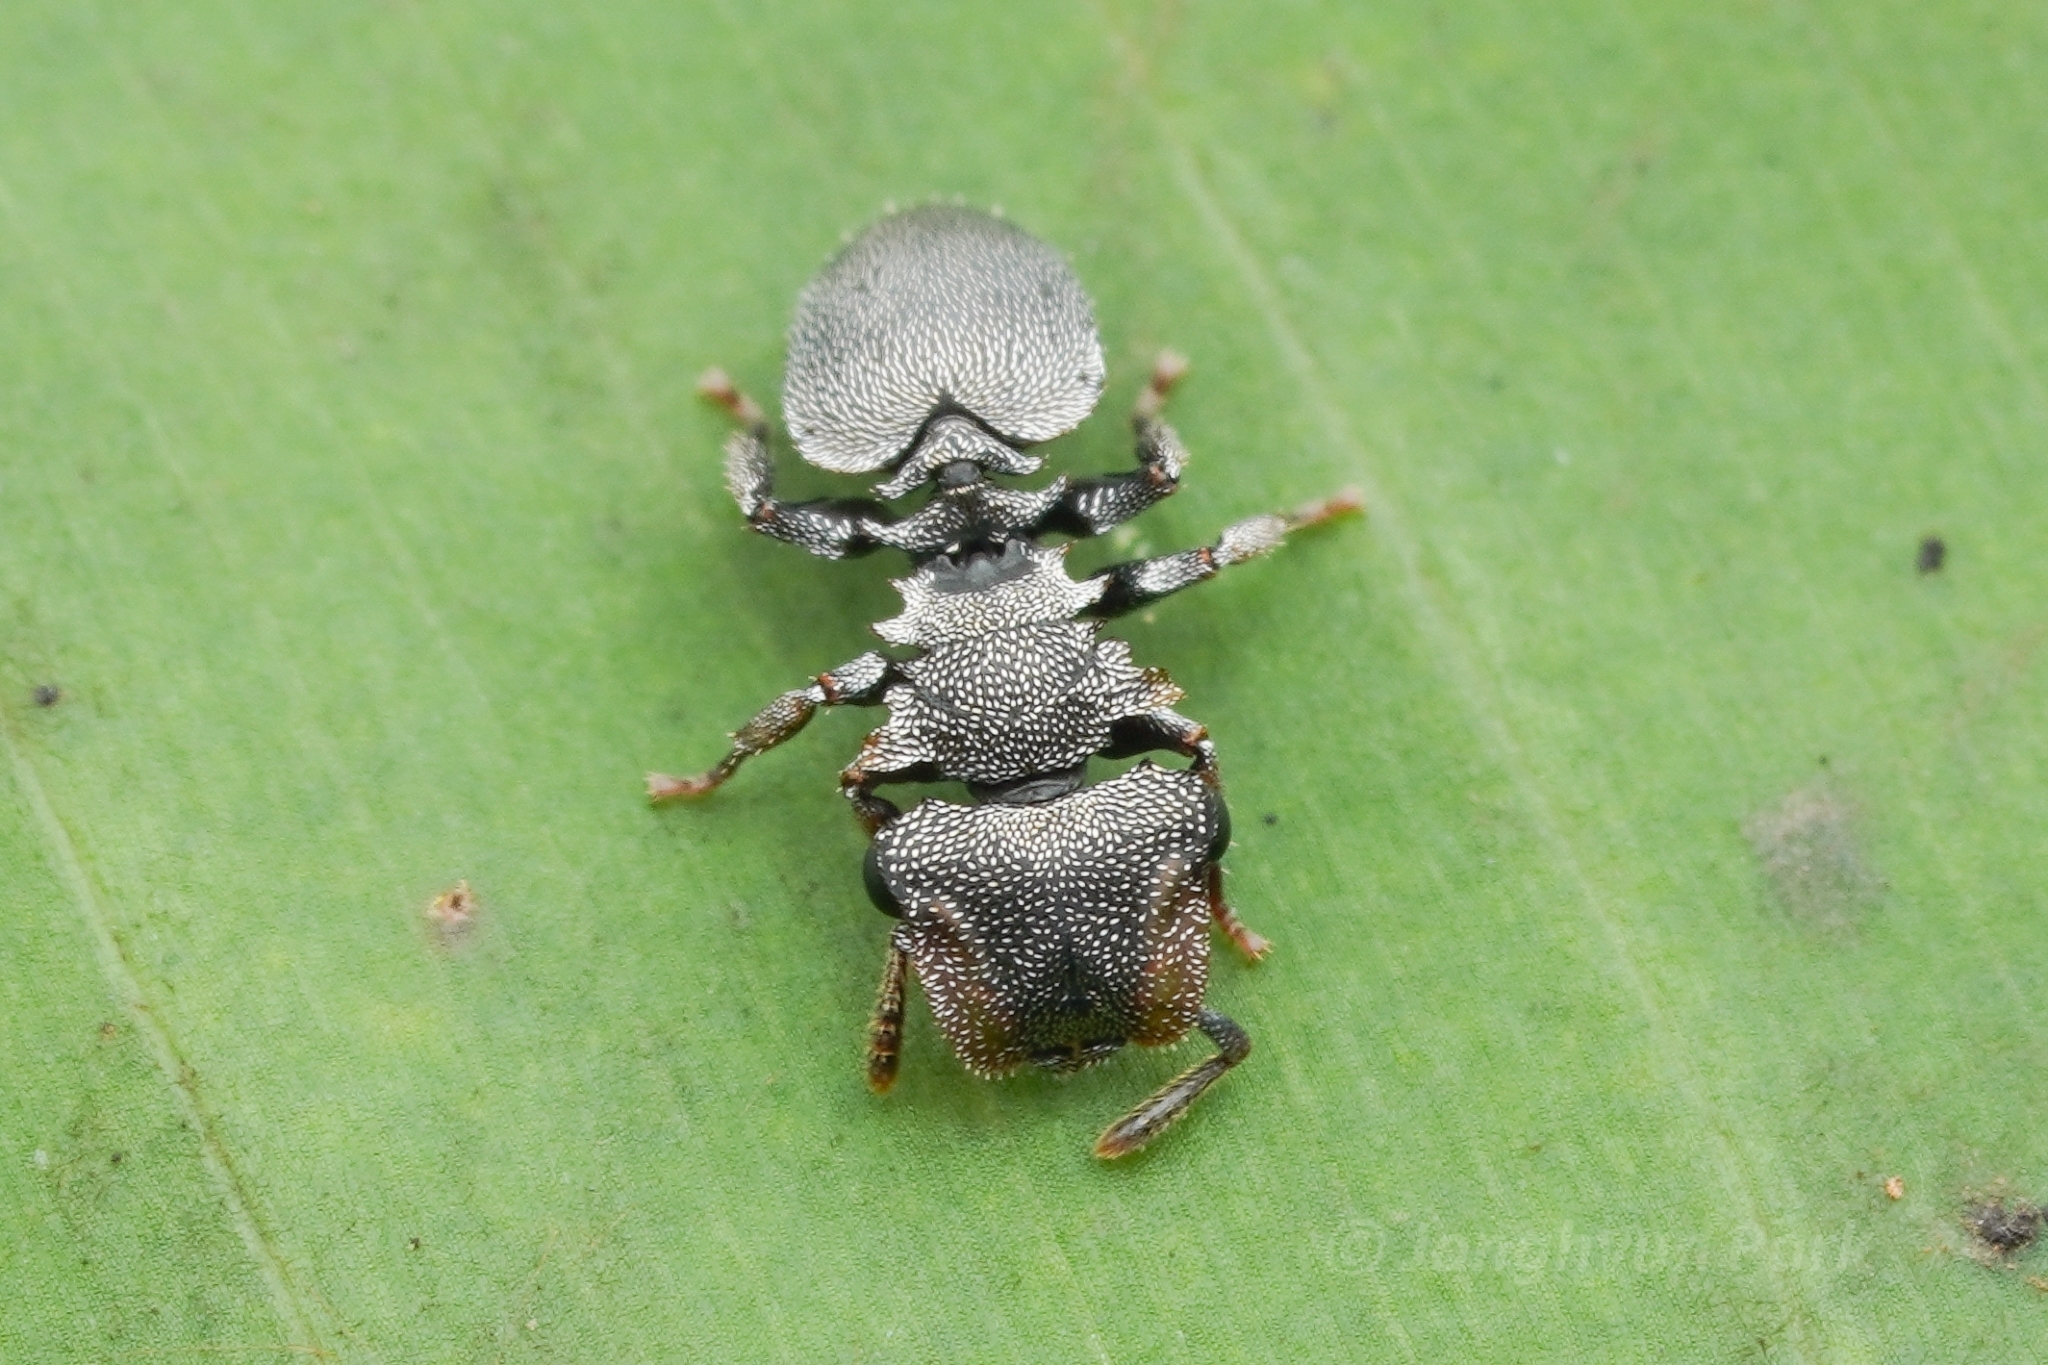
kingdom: Animalia
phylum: Arthropoda
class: Insecta
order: Hymenoptera
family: Formicidae
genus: Cephalotes
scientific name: Cephalotes palustris
